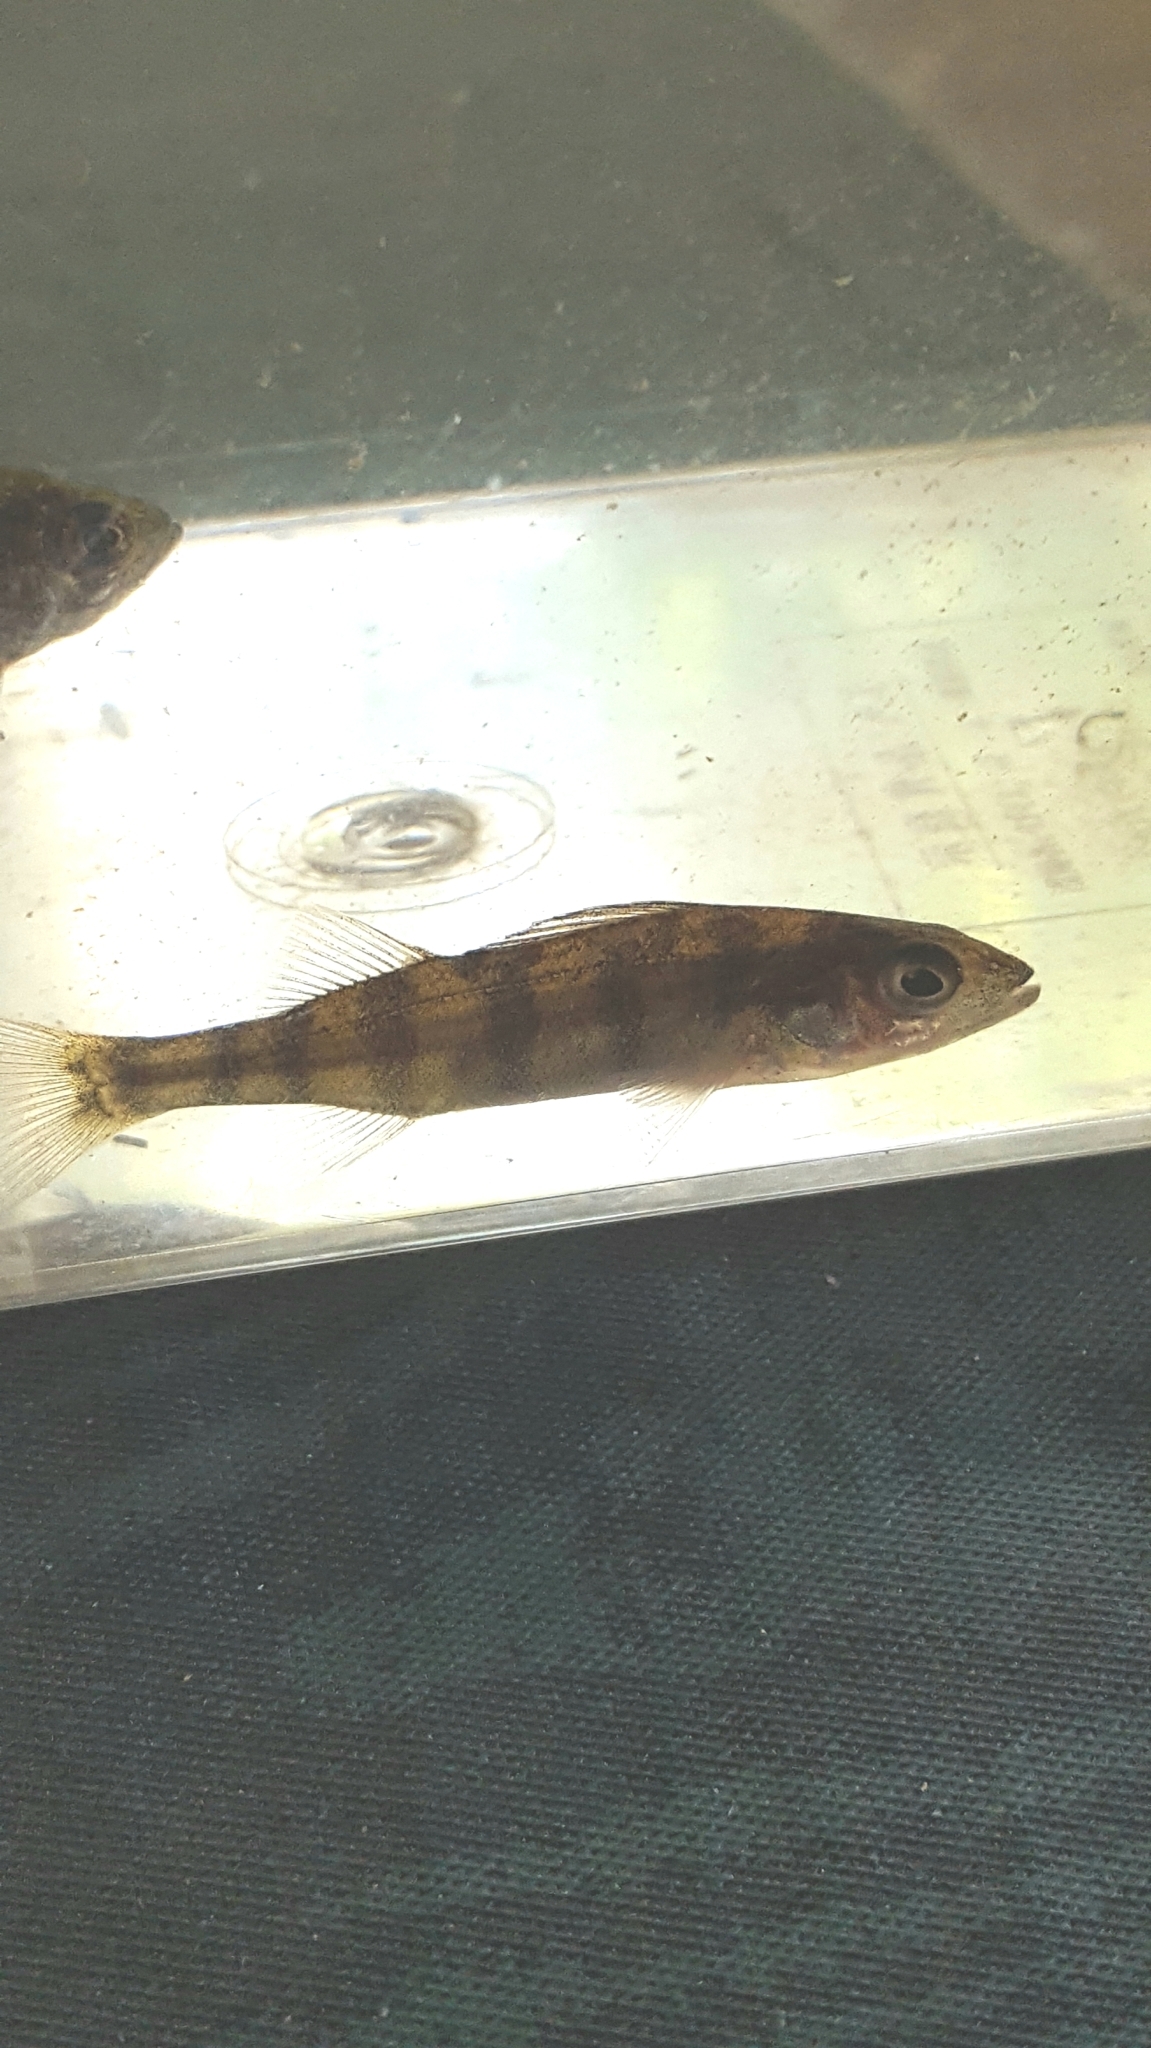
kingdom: Animalia
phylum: Chordata
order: Perciformes
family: Percidae
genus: Perca
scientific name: Perca flavescens
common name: Yellow perch
